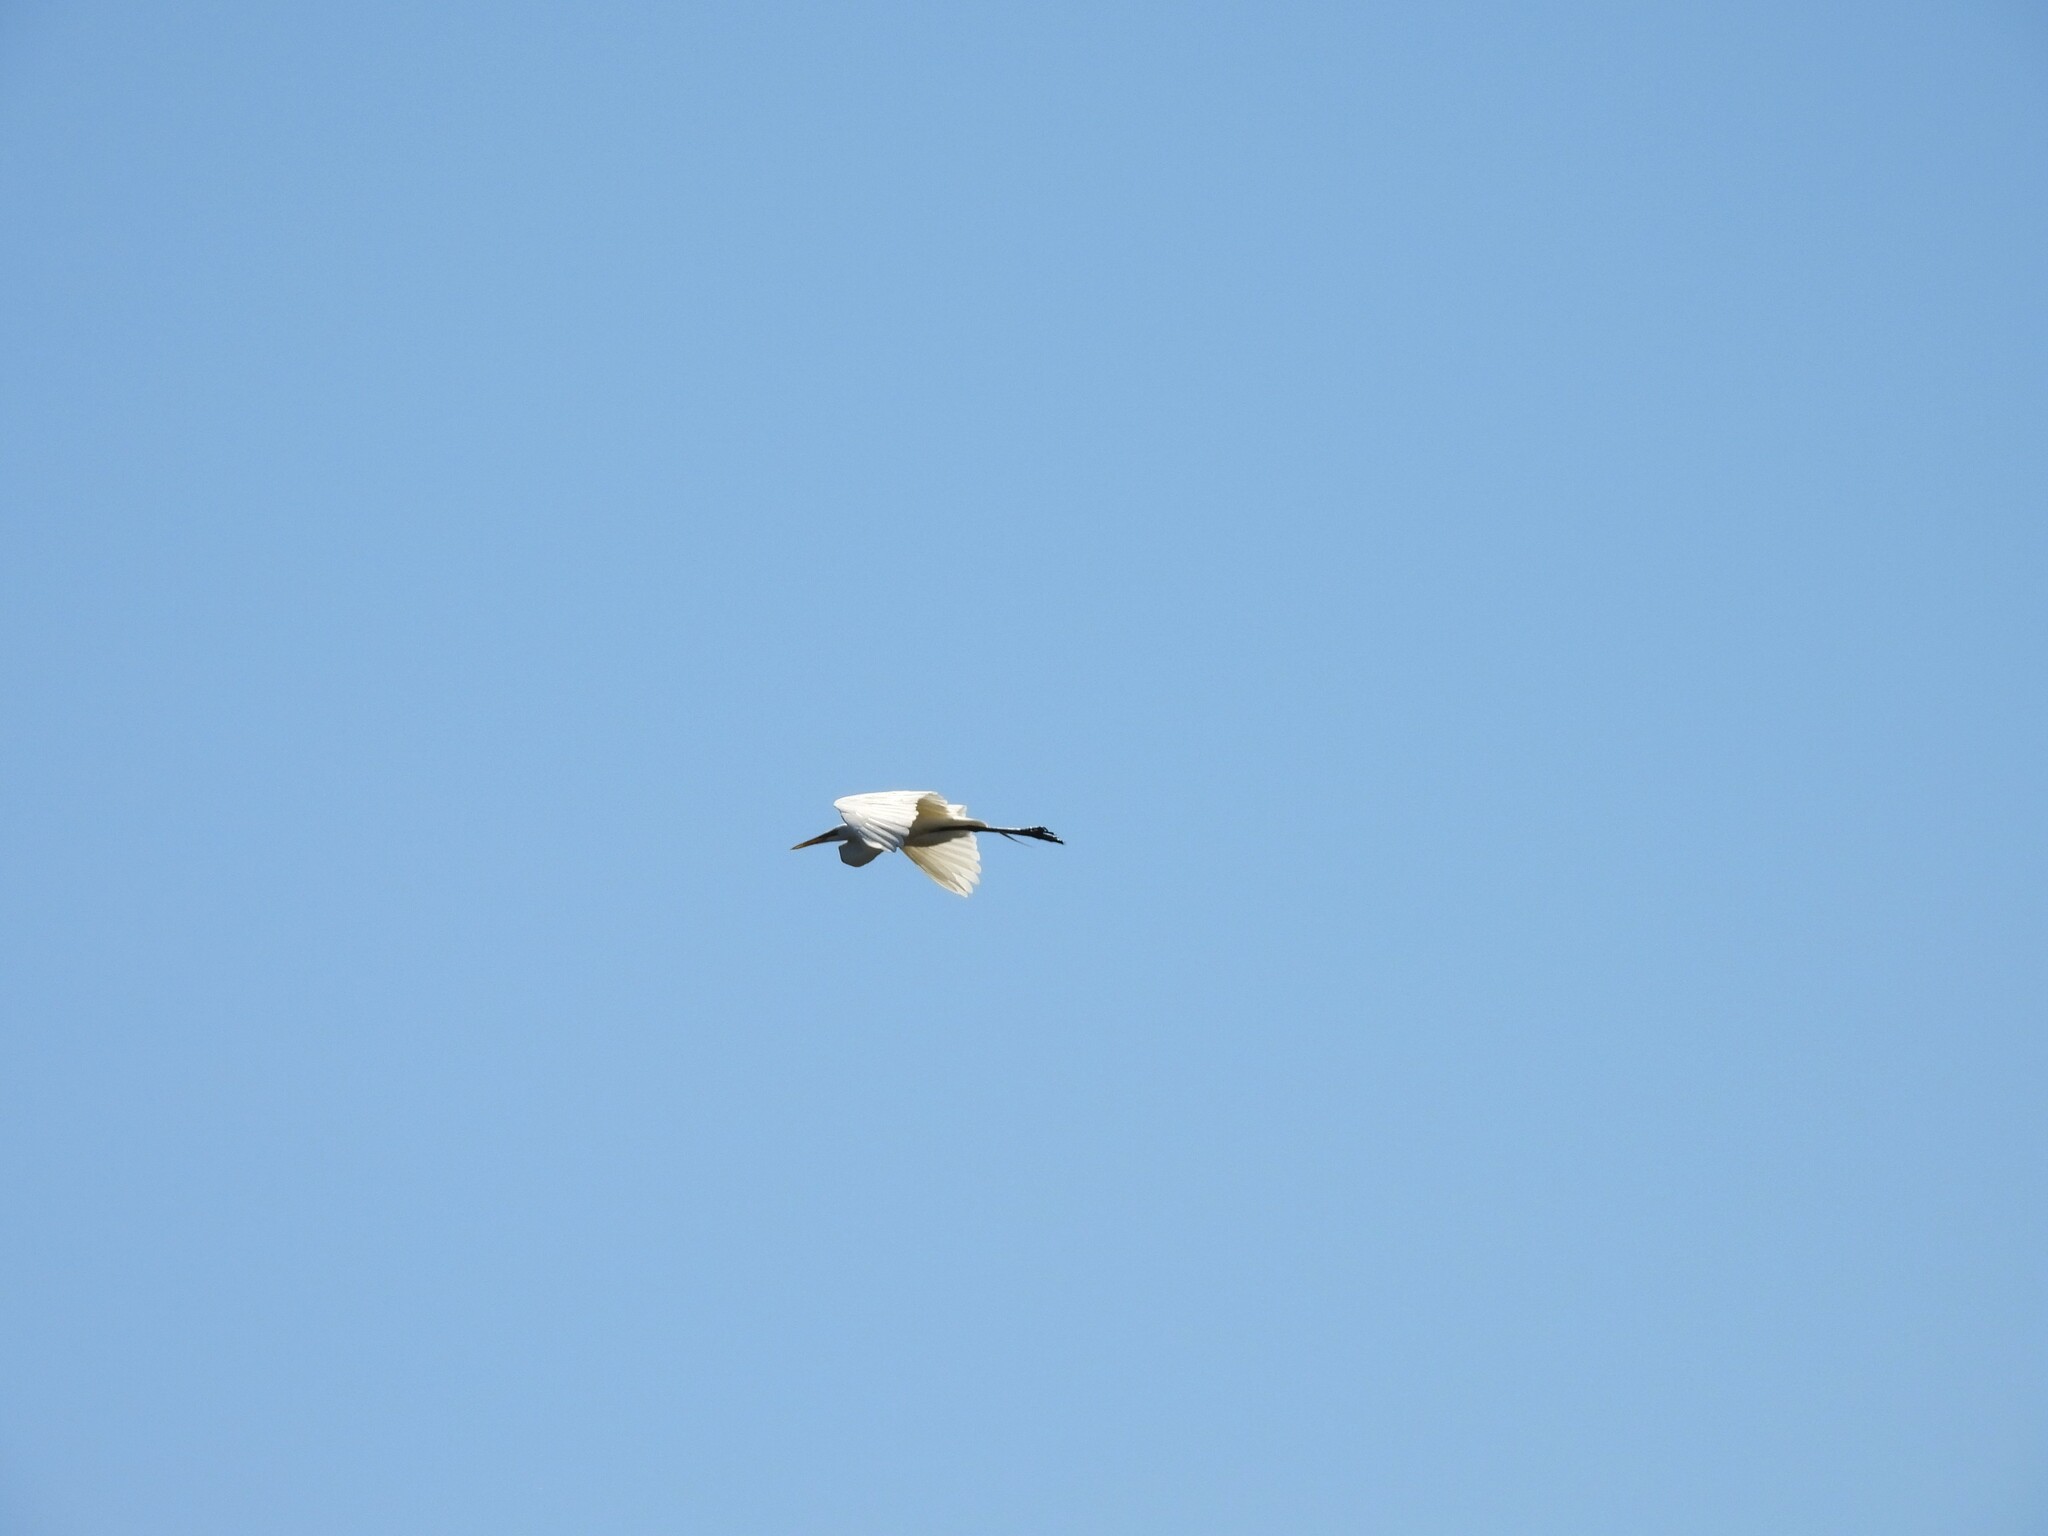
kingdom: Animalia
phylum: Chordata
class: Aves
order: Pelecaniformes
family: Ardeidae
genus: Ardea
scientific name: Ardea alba
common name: Great egret
